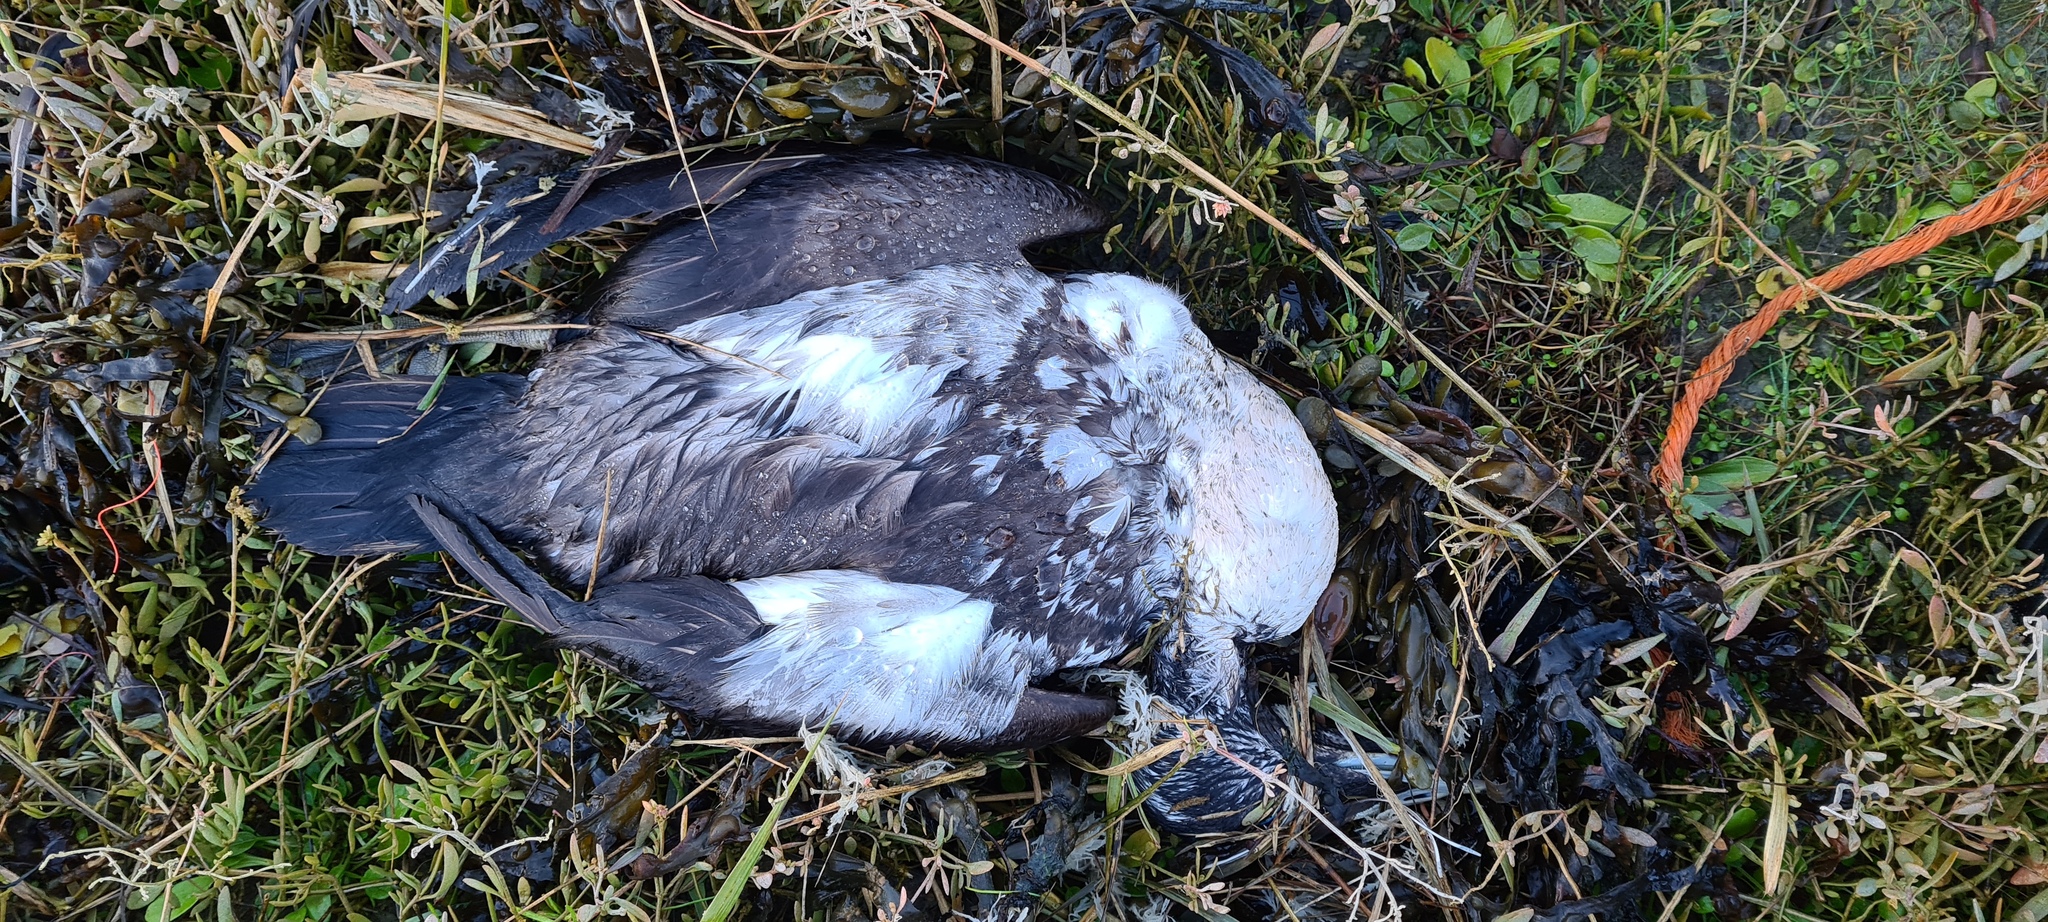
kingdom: Animalia
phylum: Chordata
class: Aves
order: Anseriformes
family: Anatidae
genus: Somateria
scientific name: Somateria mollissima
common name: Common eider
